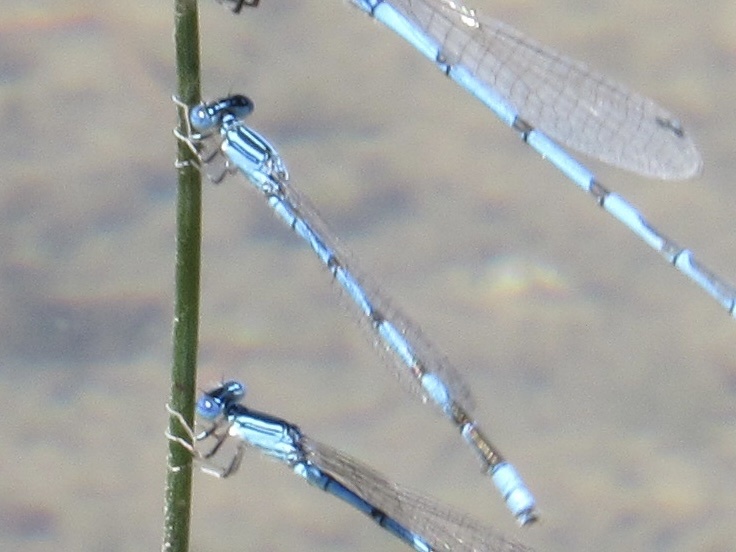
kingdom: Animalia
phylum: Arthropoda
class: Insecta
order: Odonata
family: Coenagrionidae
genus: Enallagma
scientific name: Enallagma basidens
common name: Double-striped bluet
